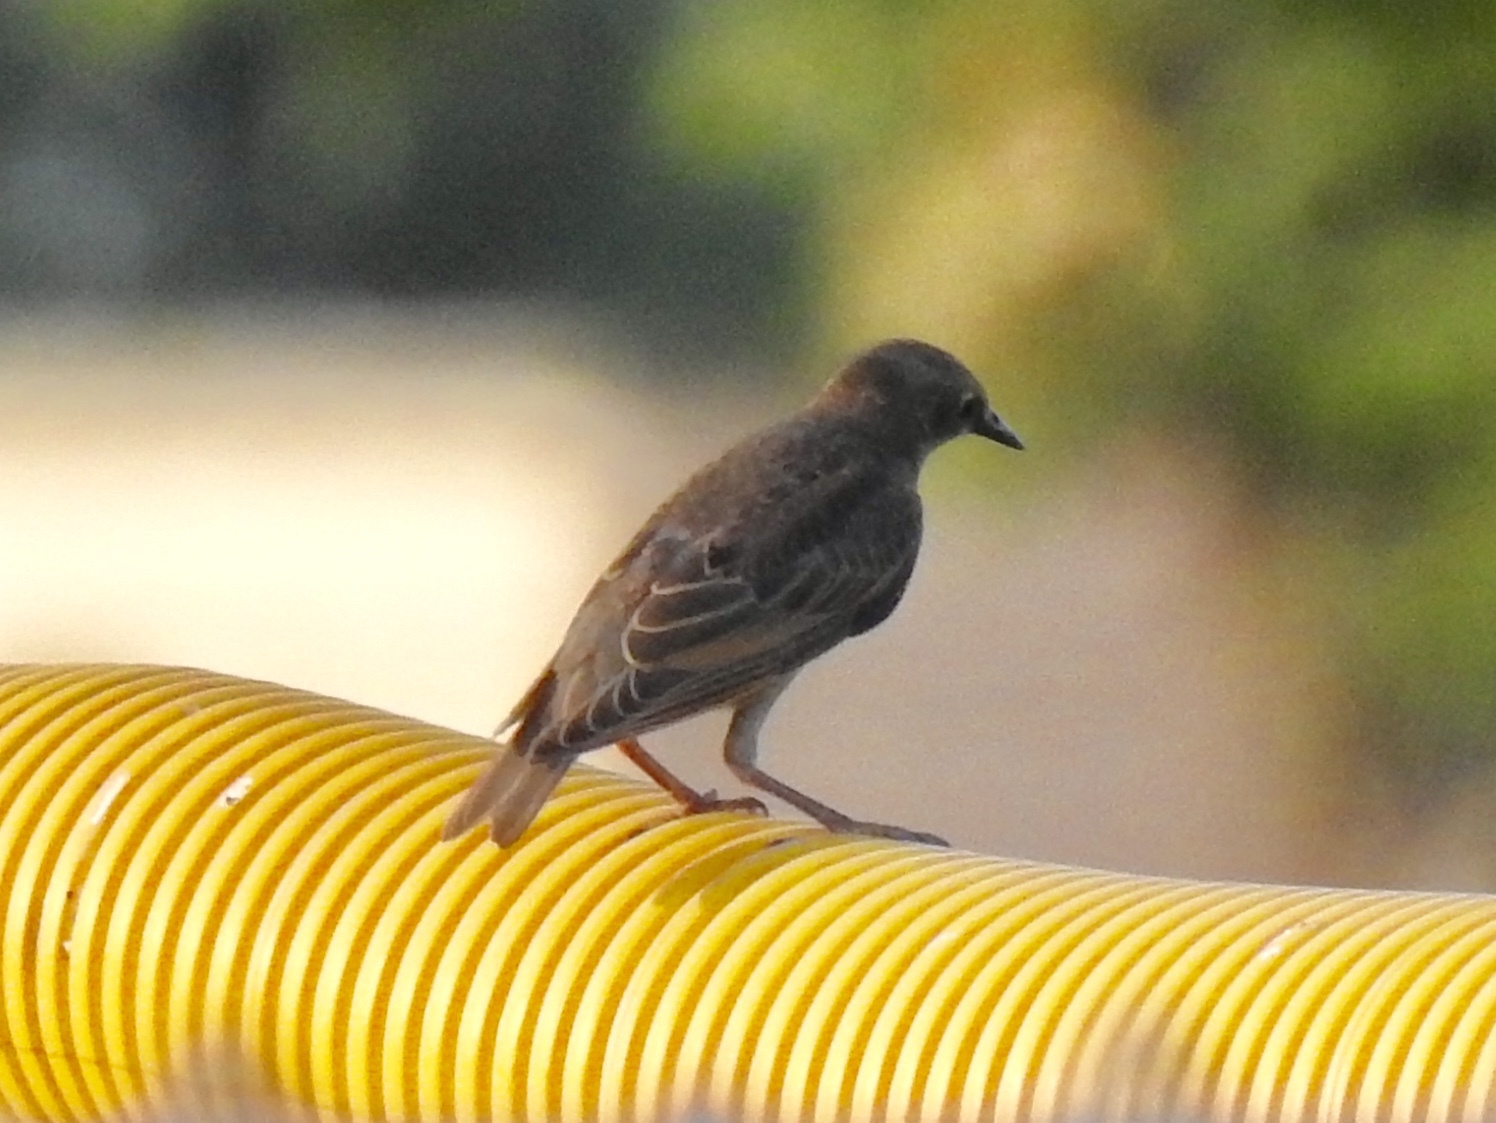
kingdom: Animalia
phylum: Chordata
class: Aves
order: Passeriformes
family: Sturnidae
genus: Sturnus
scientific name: Sturnus vulgaris
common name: Common starling
